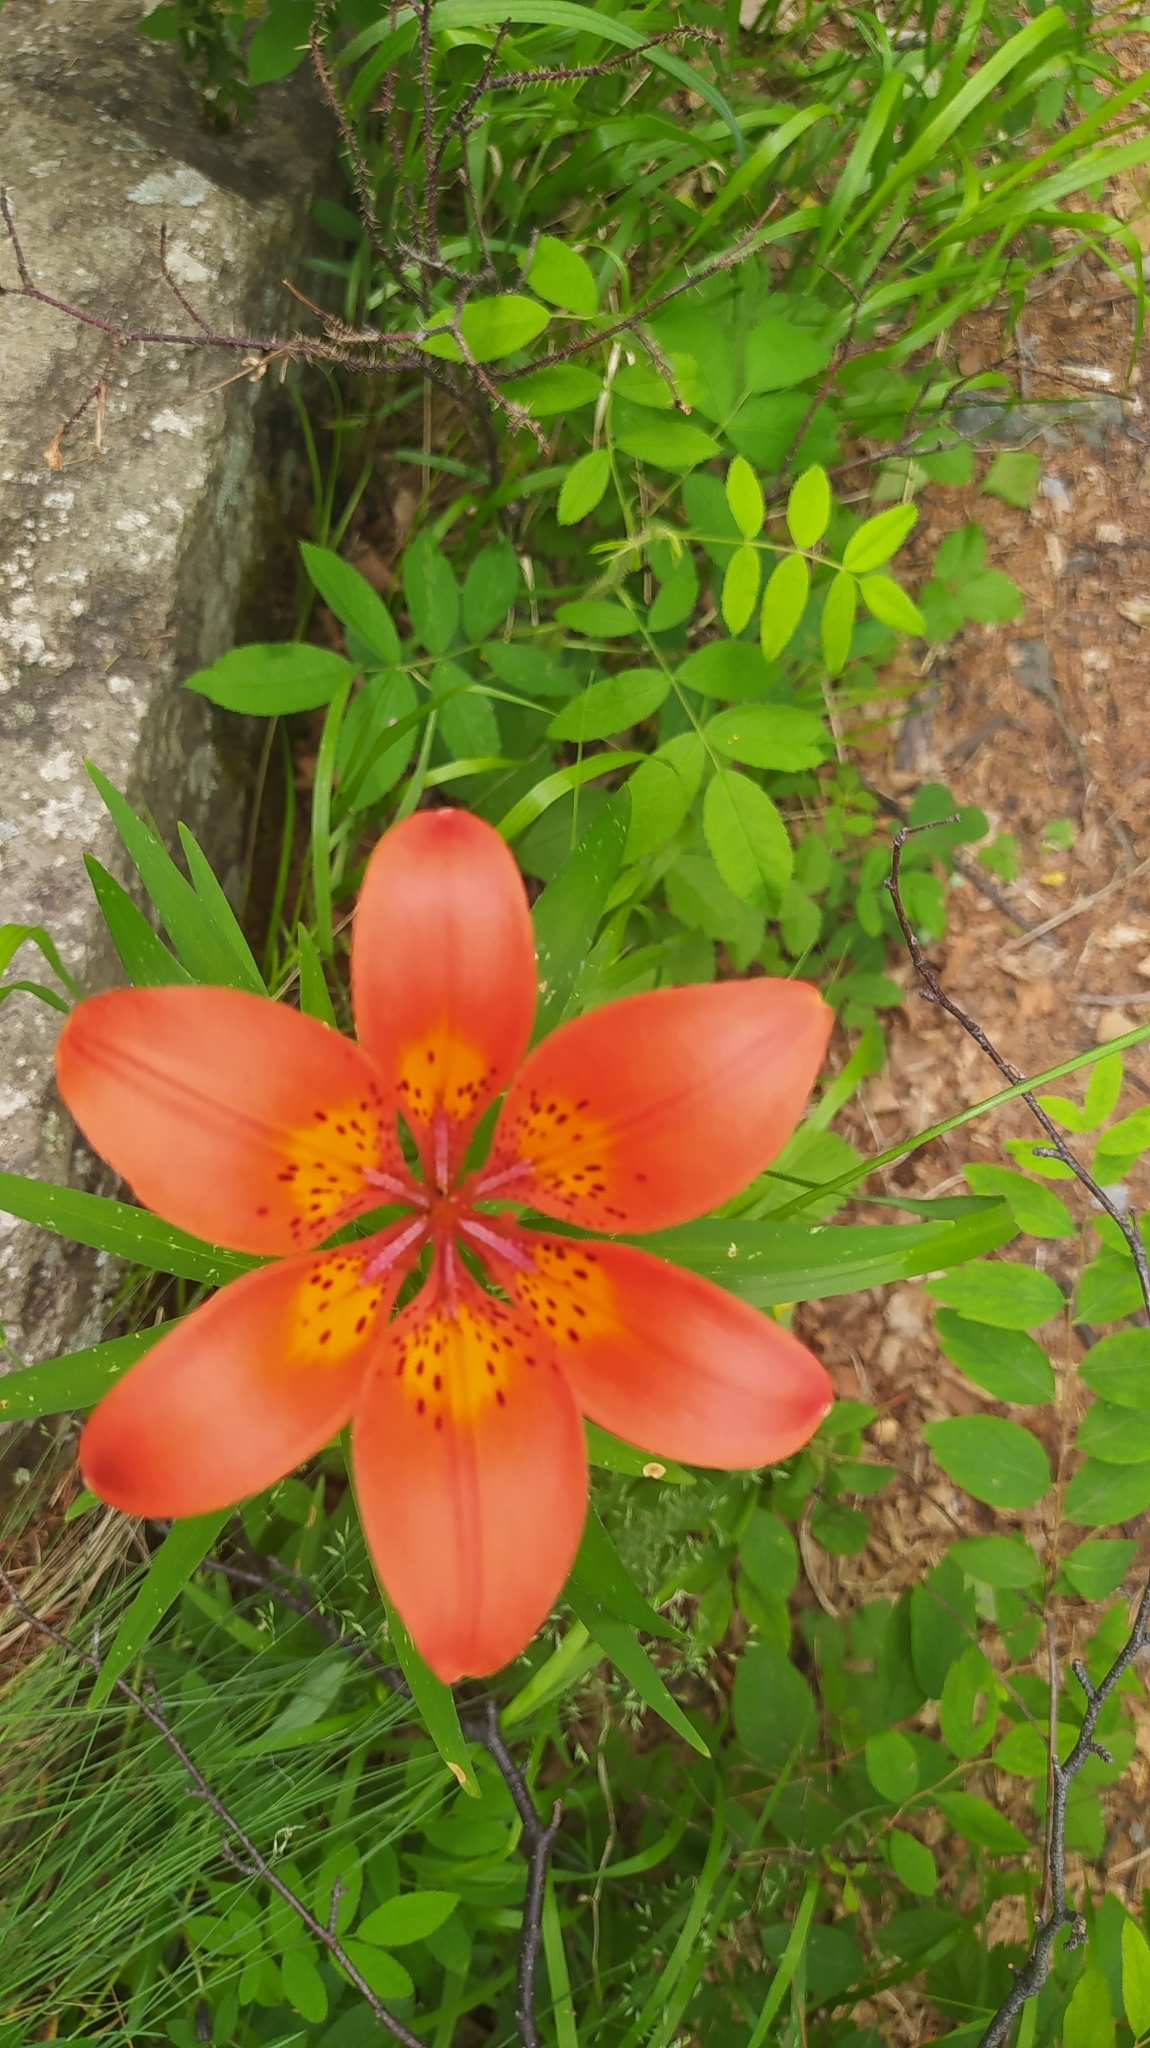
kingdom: Plantae
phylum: Tracheophyta
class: Liliopsida
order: Liliales
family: Liliaceae
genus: Lilium
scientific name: Lilium pensylvanicum
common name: Candlestick lily
